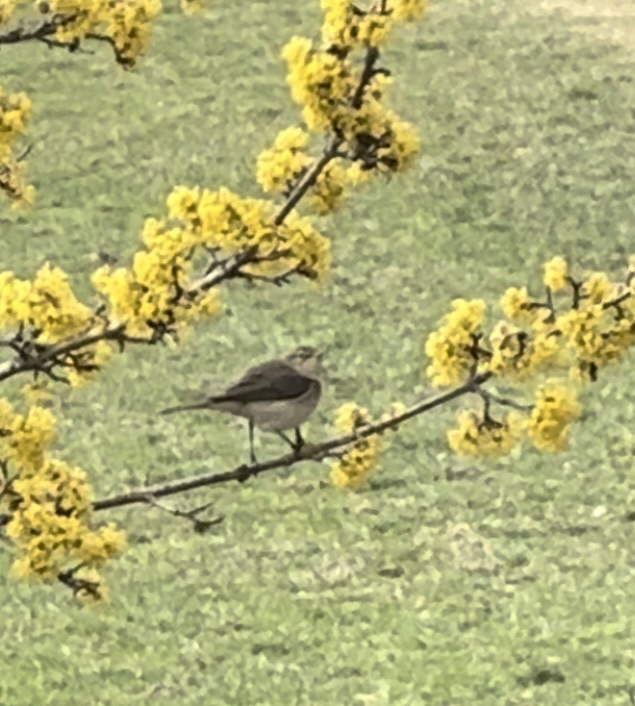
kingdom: Animalia
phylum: Chordata
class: Aves
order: Passeriformes
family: Phylloscopidae
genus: Phylloscopus
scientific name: Phylloscopus collybita
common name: Common chiffchaff
